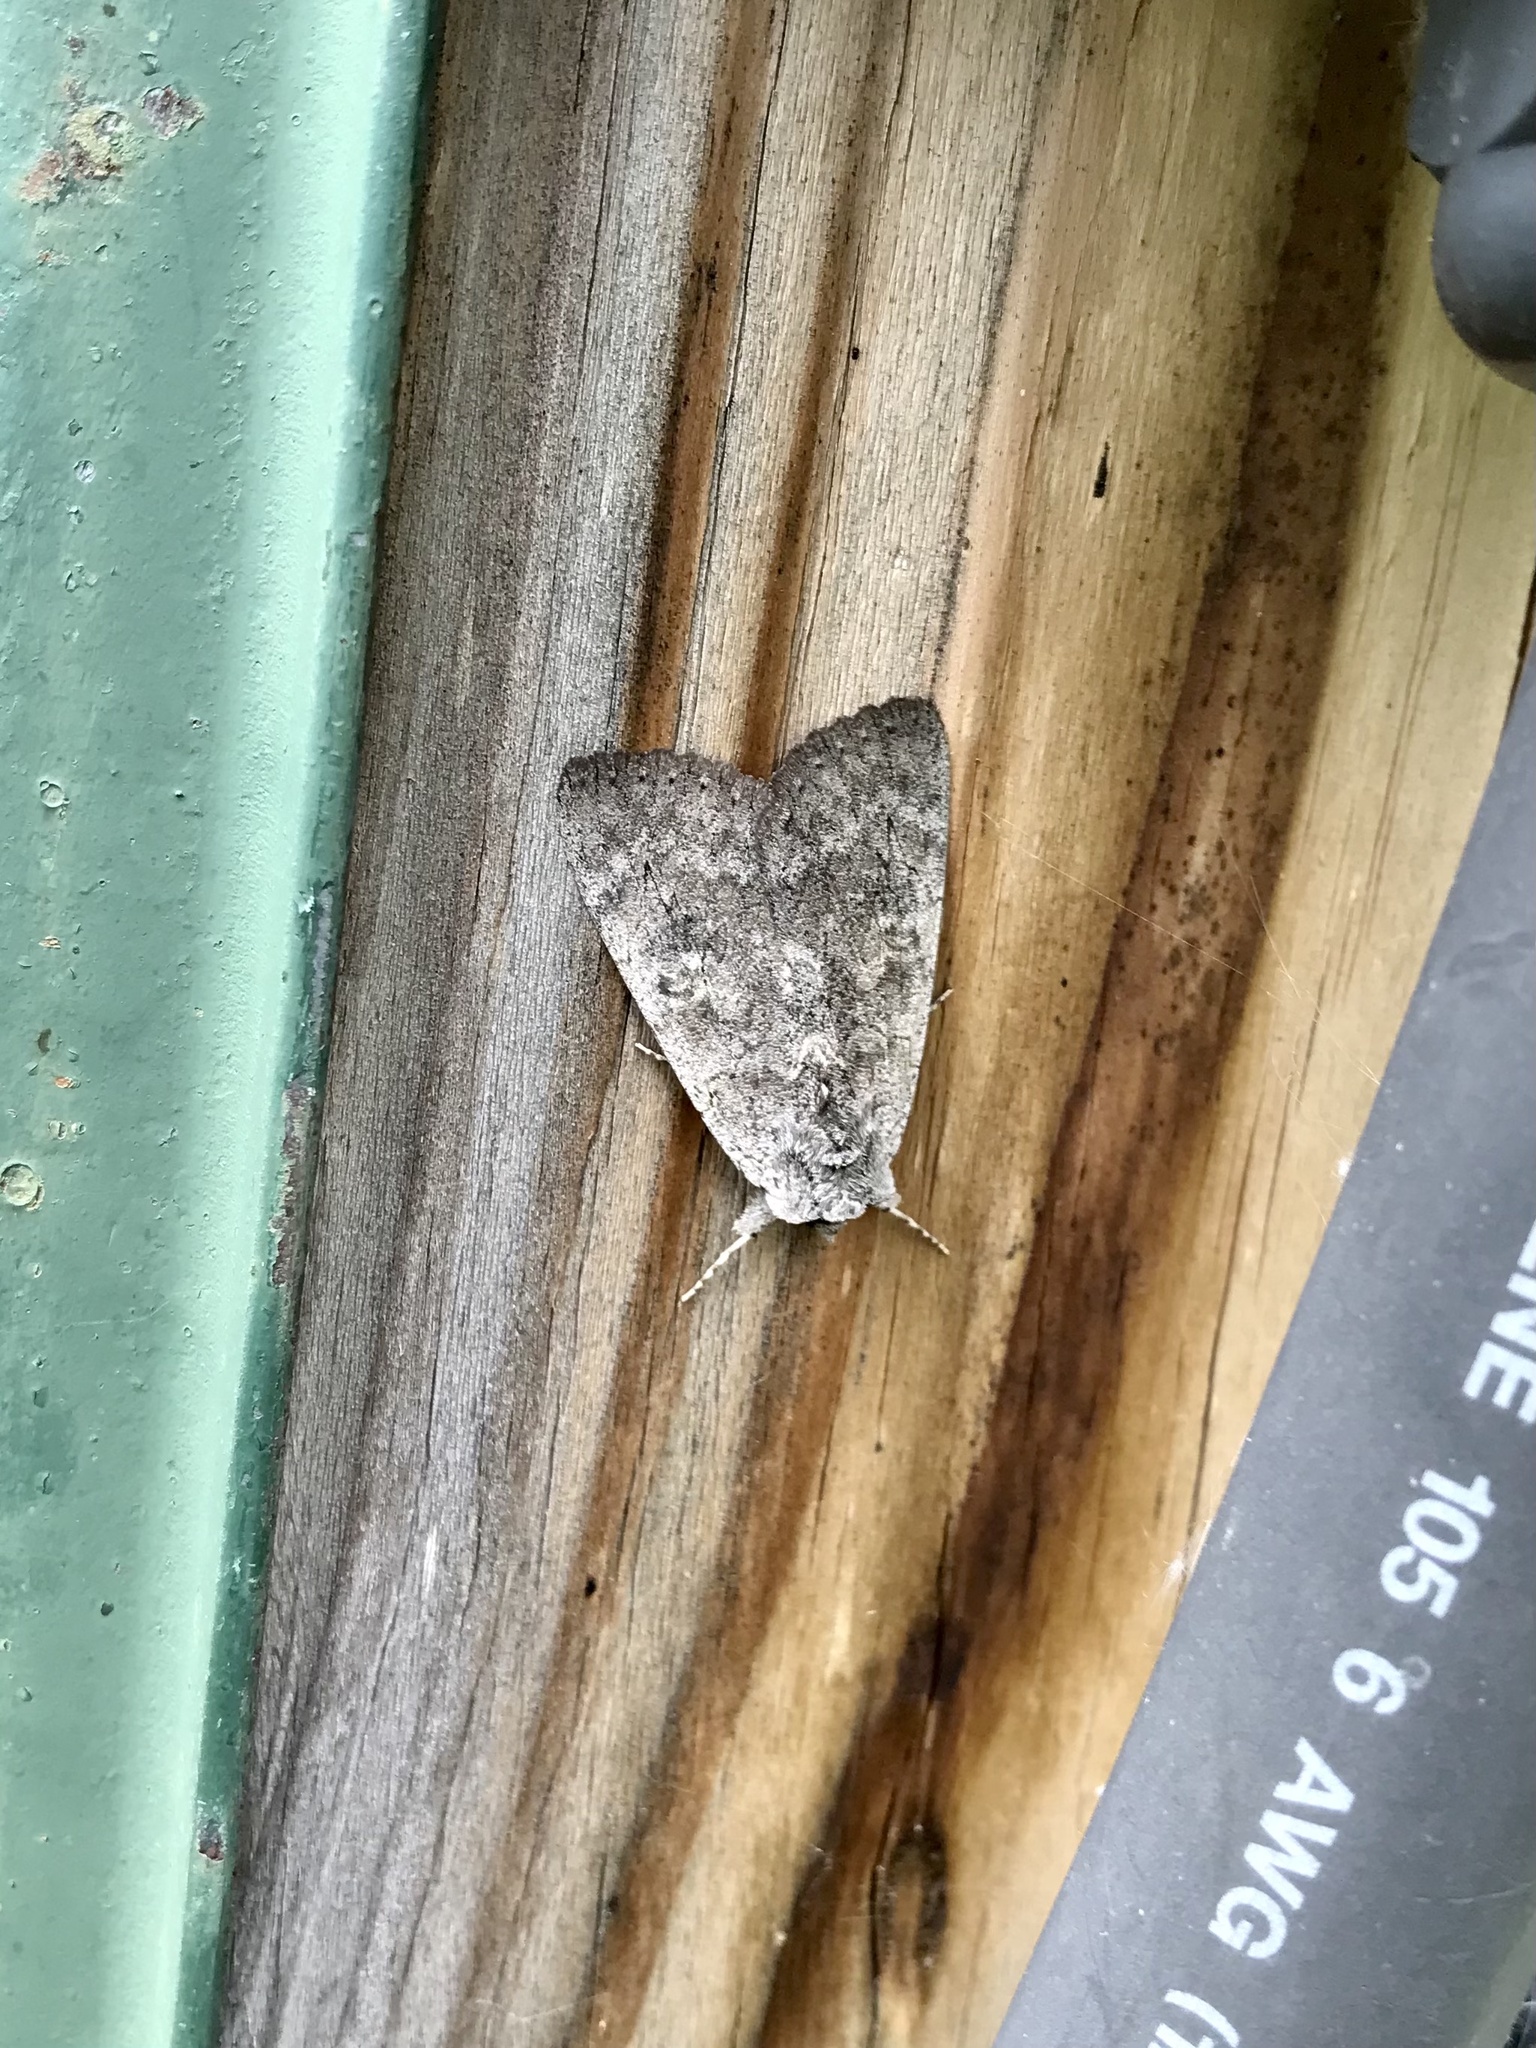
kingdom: Animalia
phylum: Arthropoda
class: Insecta
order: Lepidoptera
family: Erebidae
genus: Catocala
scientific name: Catocala concumbens
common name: Pink underwing
